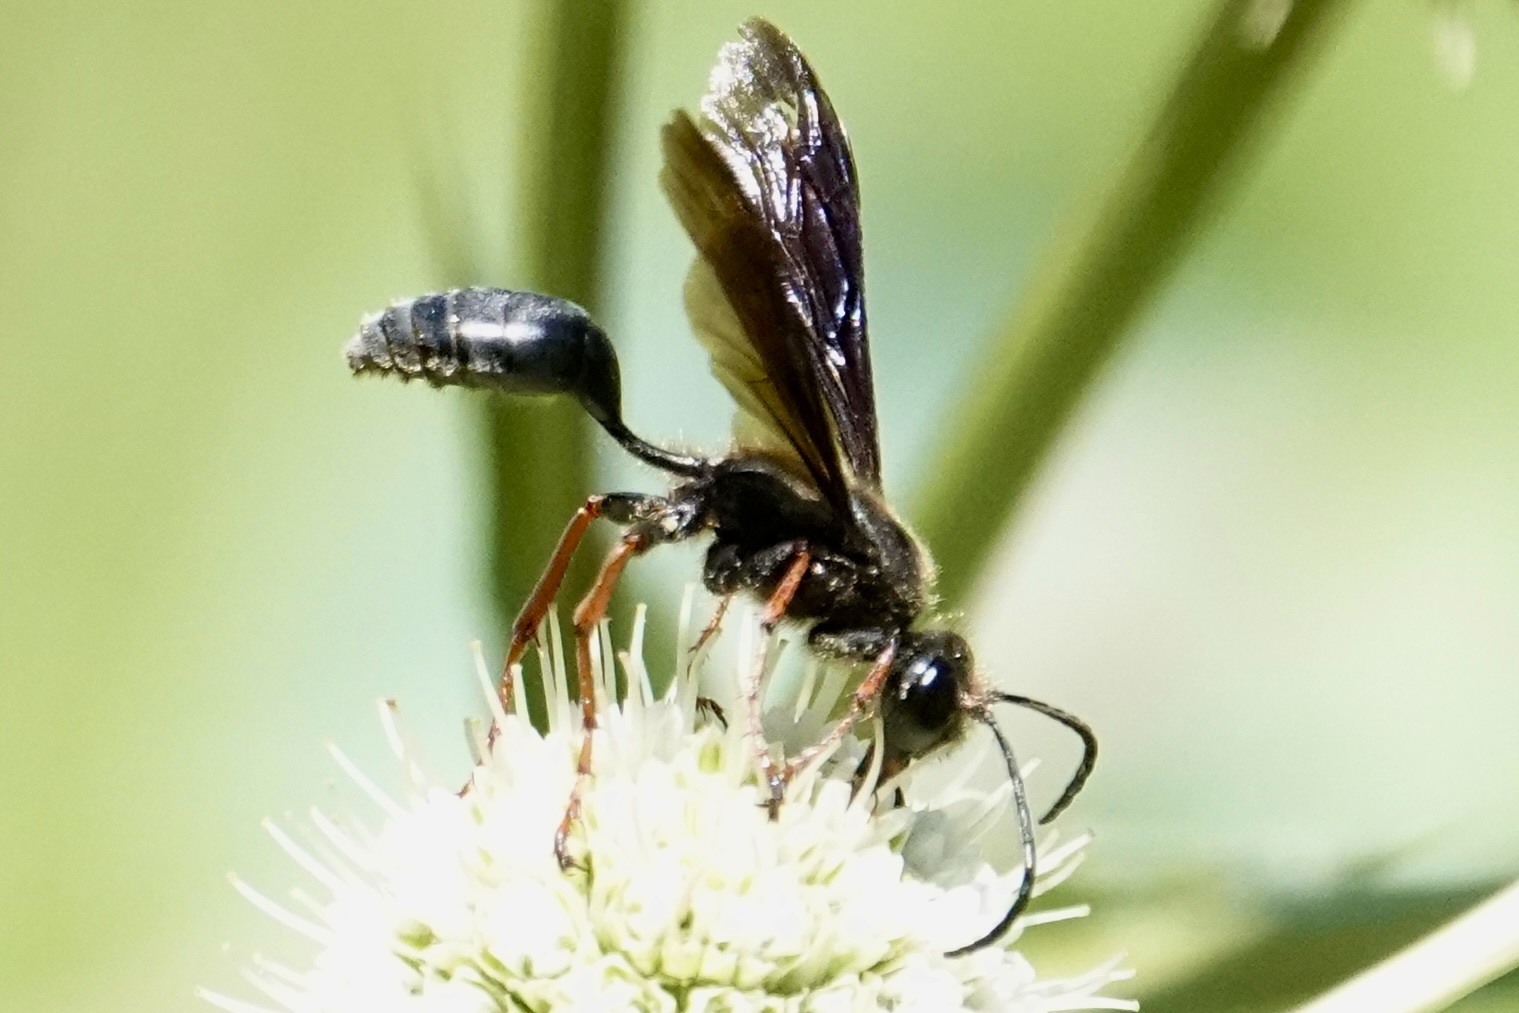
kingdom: Animalia
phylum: Arthropoda
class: Insecta
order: Hymenoptera
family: Sphecidae
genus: Isodontia
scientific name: Isodontia auripes
